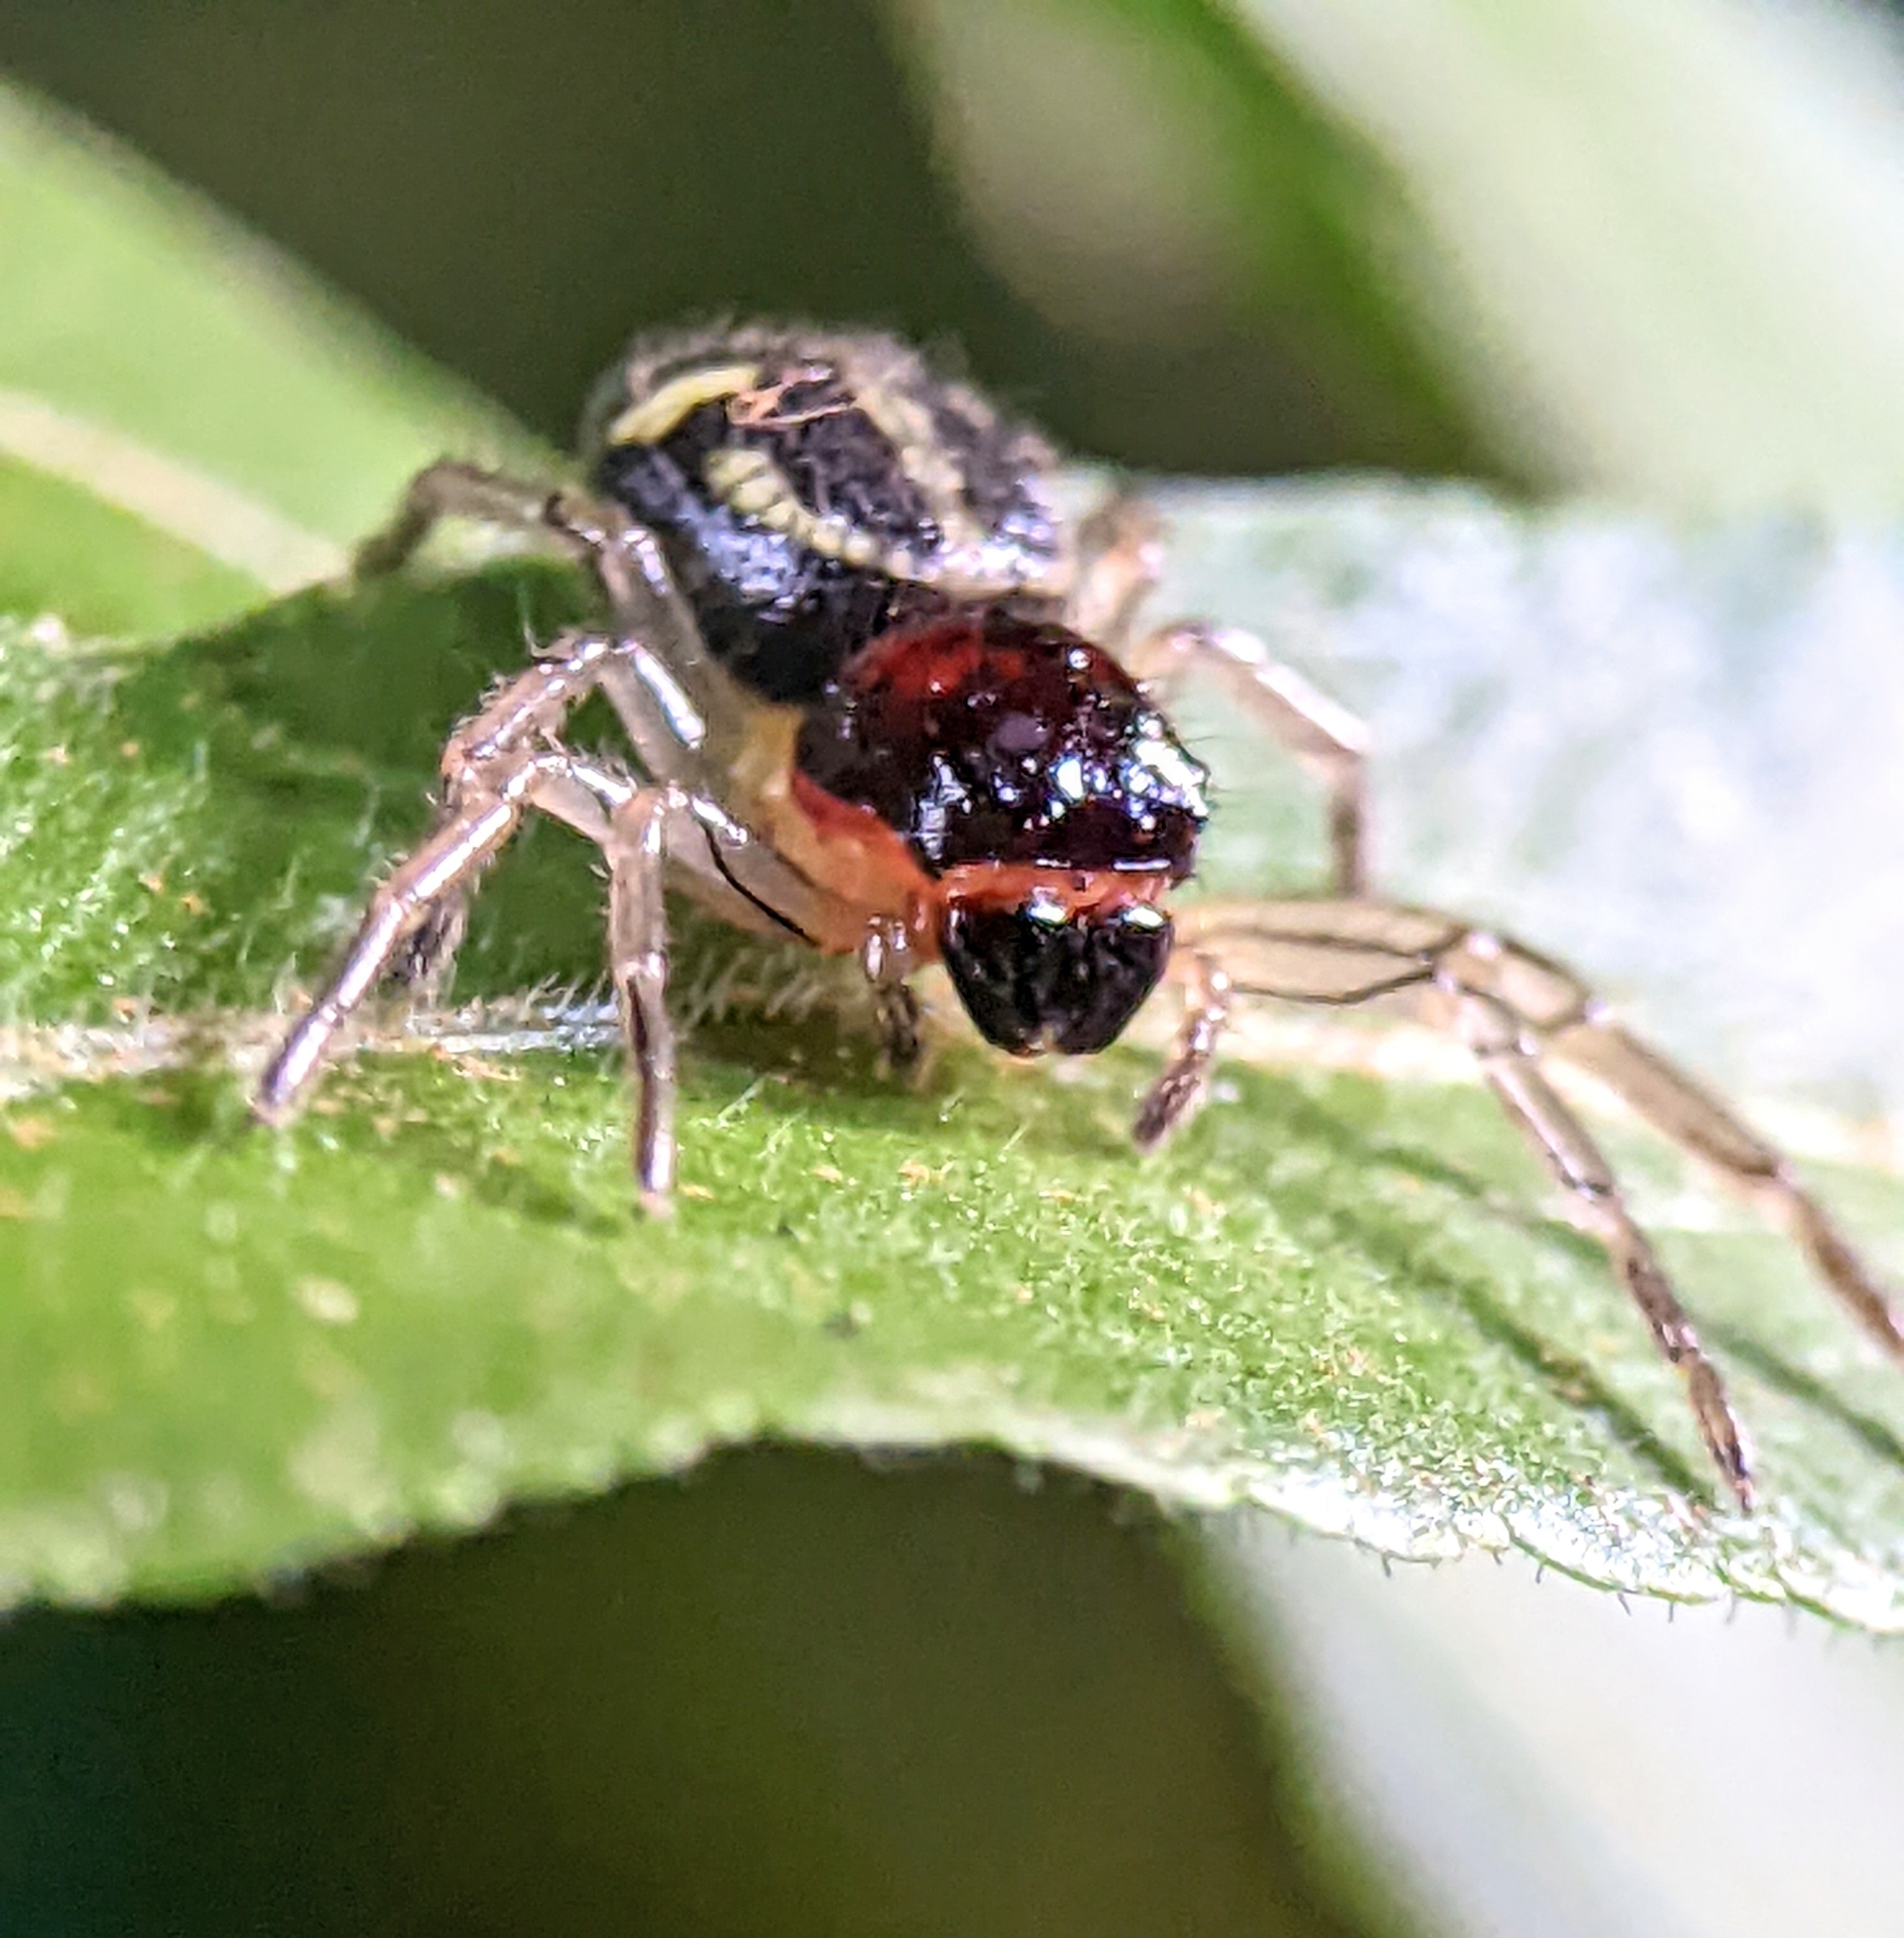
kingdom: Animalia
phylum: Arthropoda
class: Arachnida
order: Araneae
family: Thomisidae
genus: Camaricus
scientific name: Camaricus maugei
